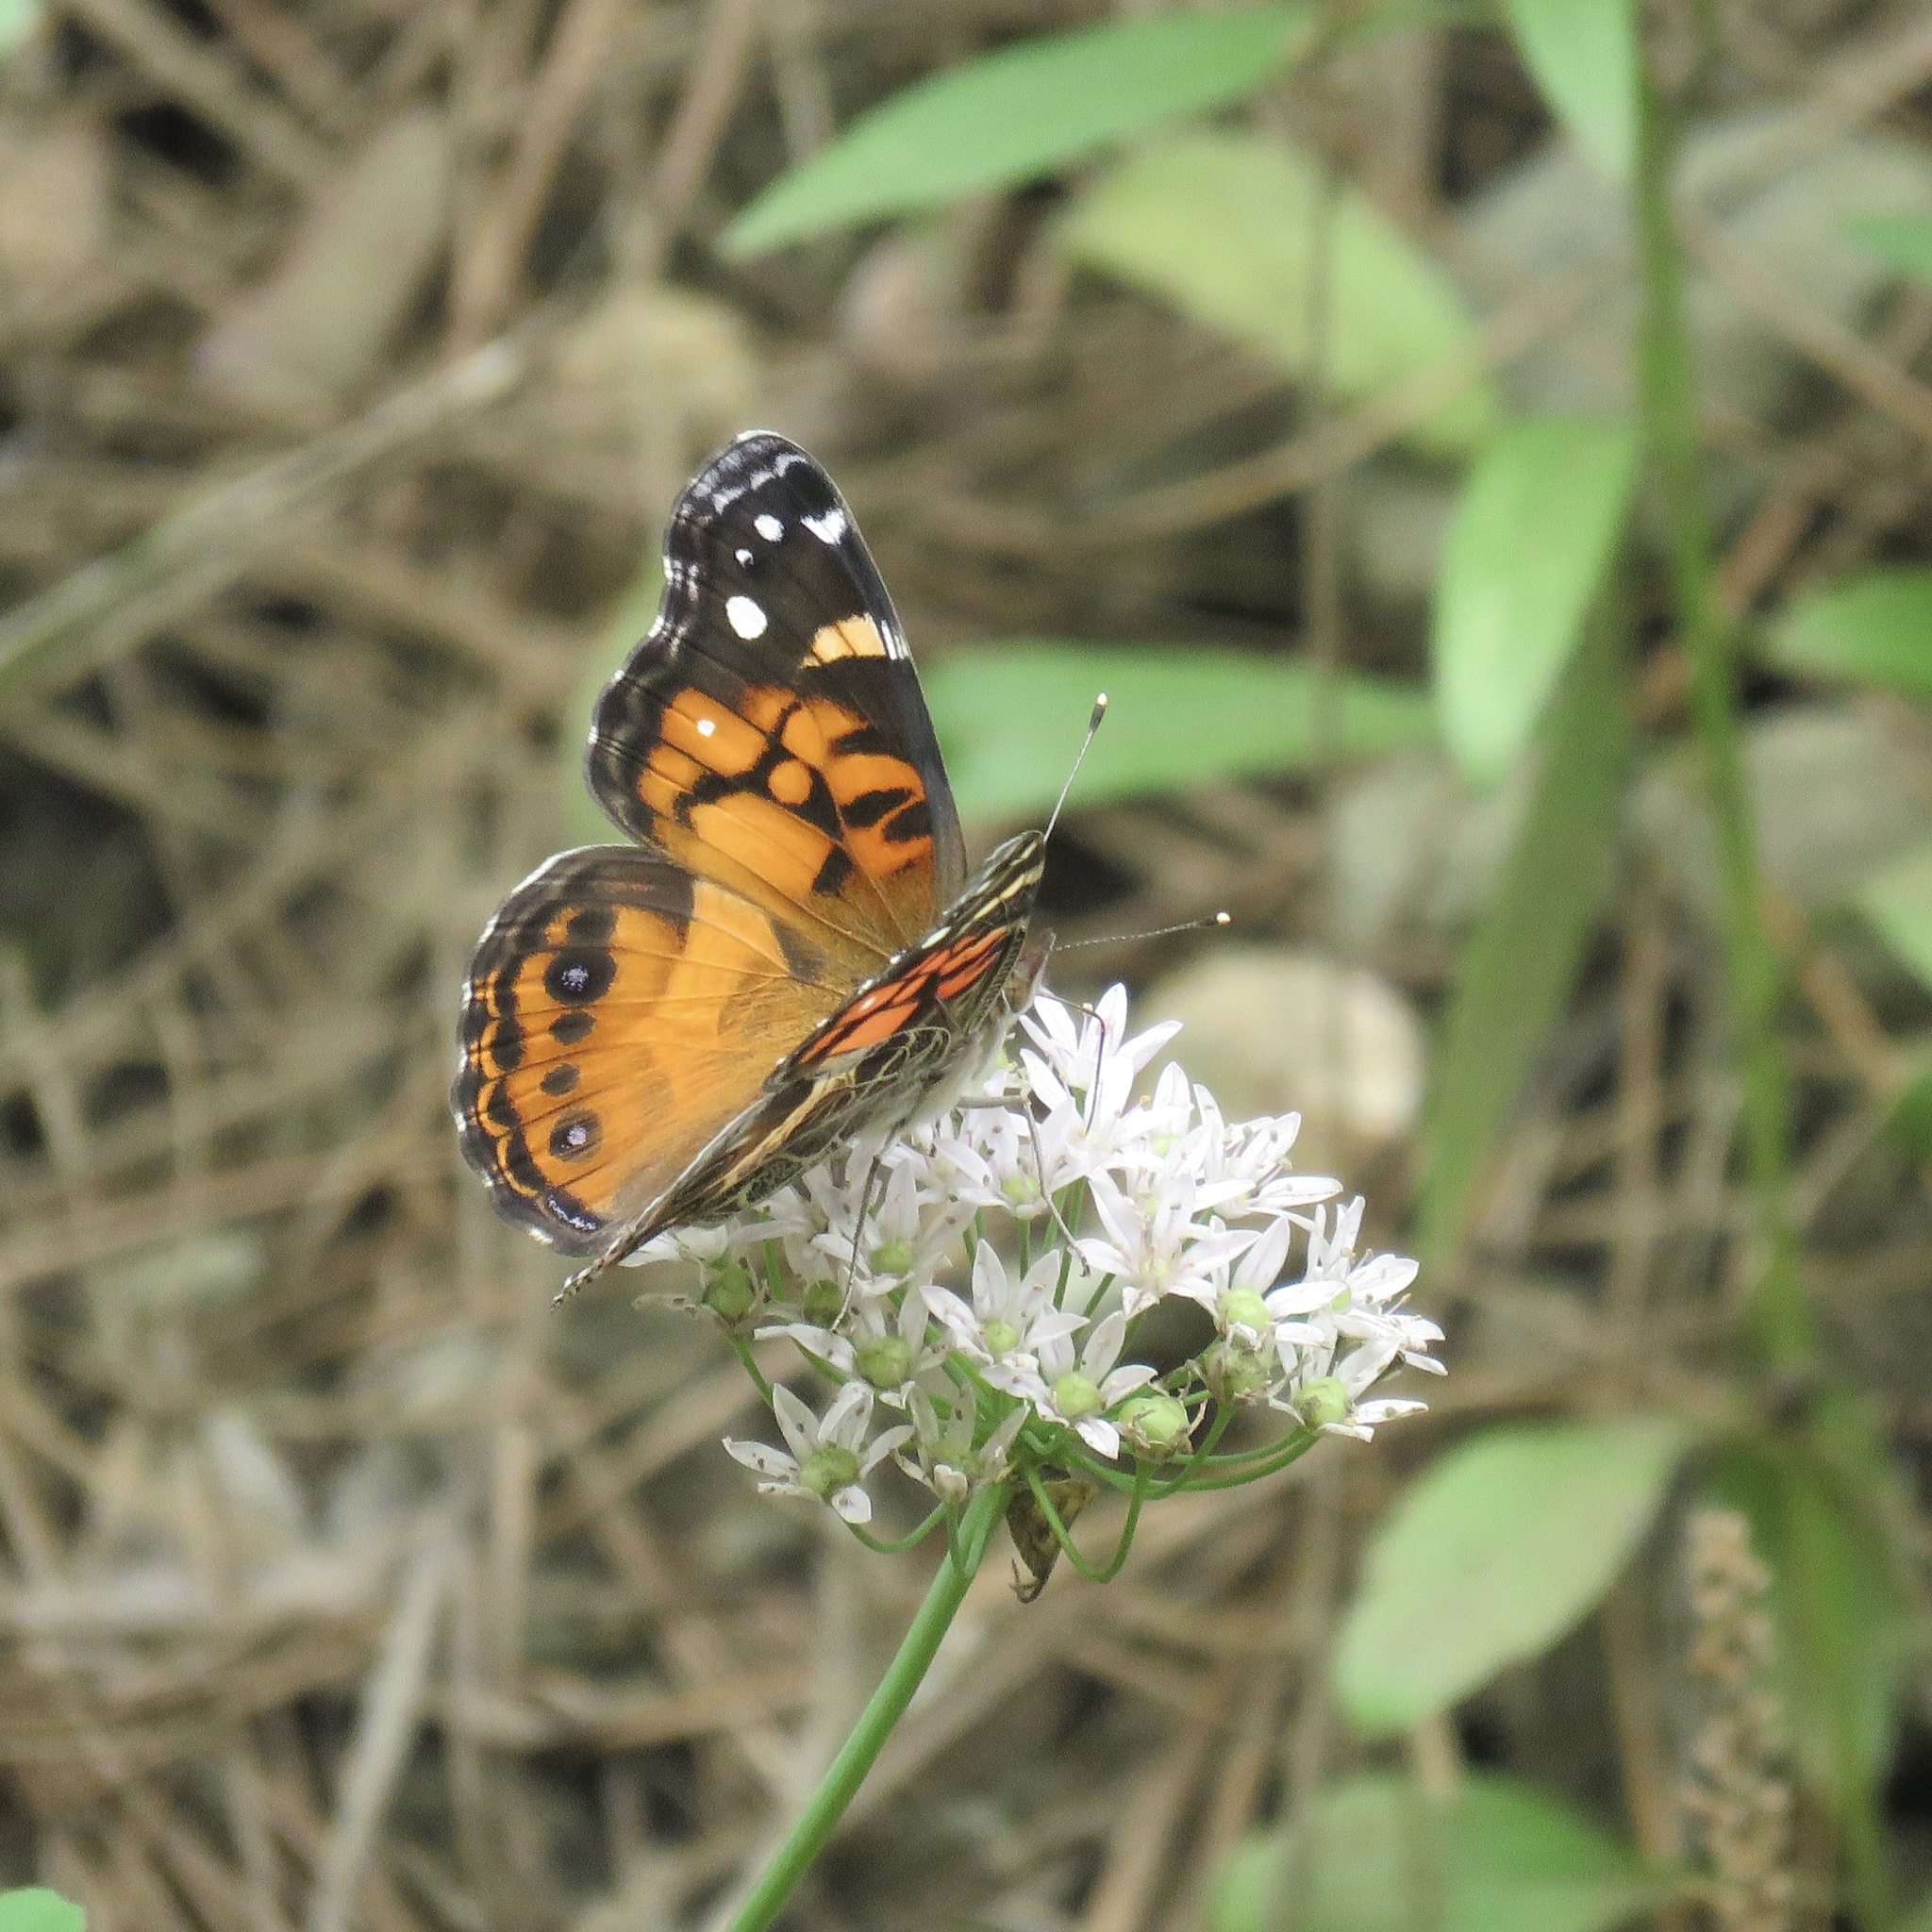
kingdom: Animalia
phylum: Arthropoda
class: Insecta
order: Lepidoptera
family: Nymphalidae
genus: Vanessa
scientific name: Vanessa virginiensis
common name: American lady
